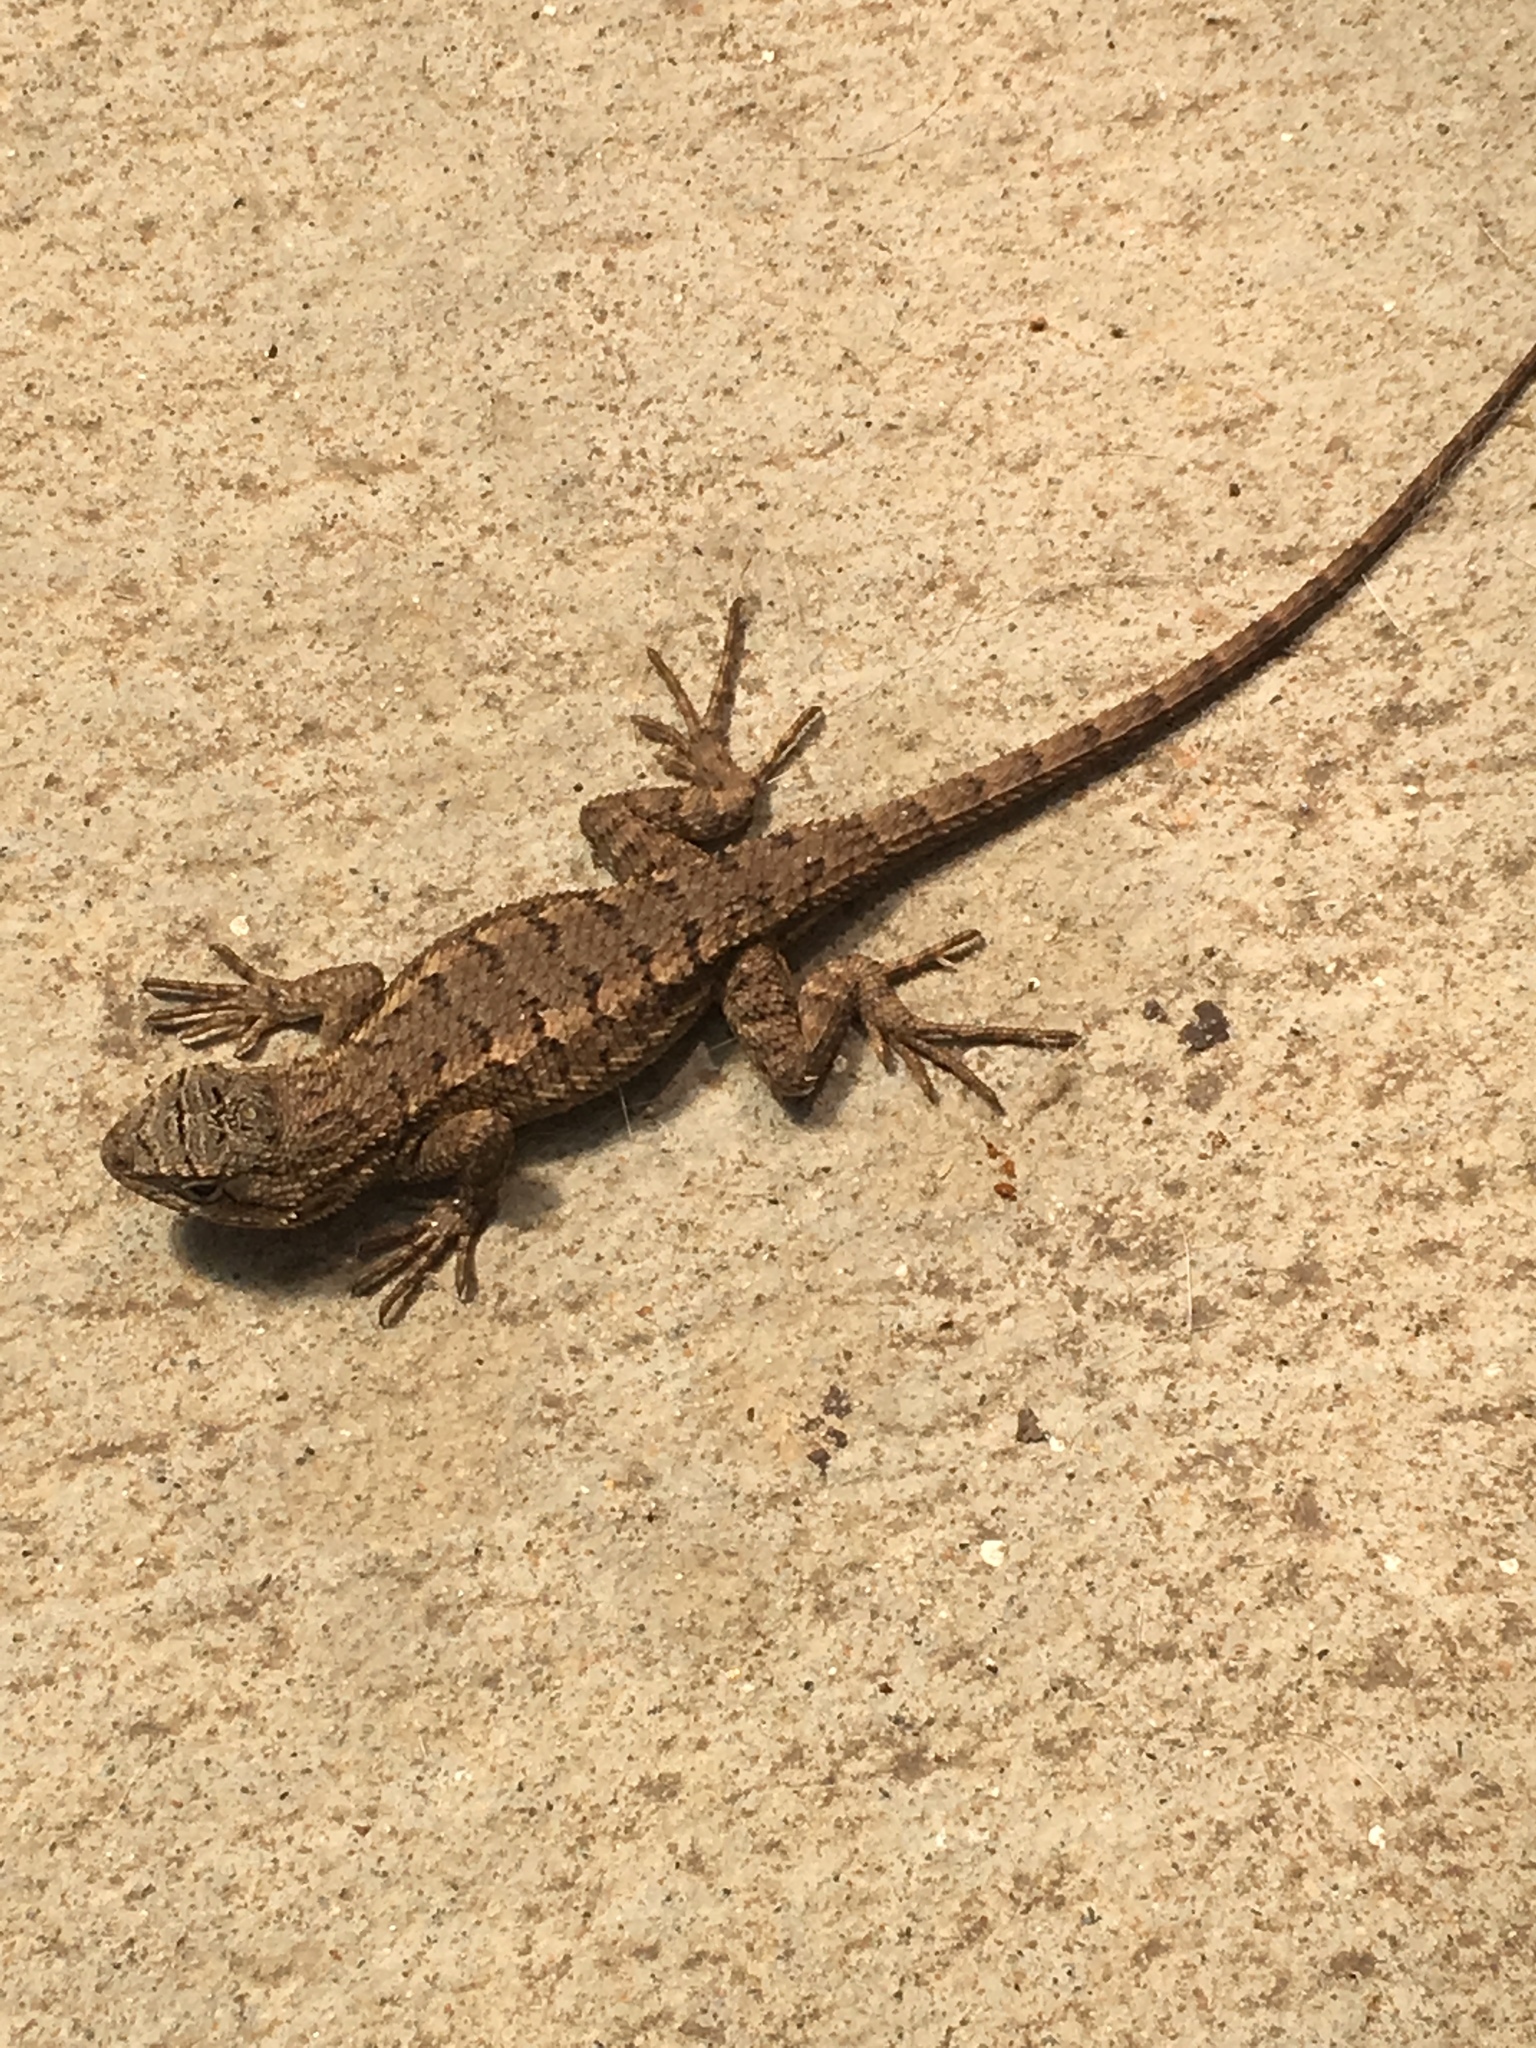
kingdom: Animalia
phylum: Chordata
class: Squamata
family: Phrynosomatidae
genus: Sceloporus
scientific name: Sceloporus occidentalis
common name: Western fence lizard
